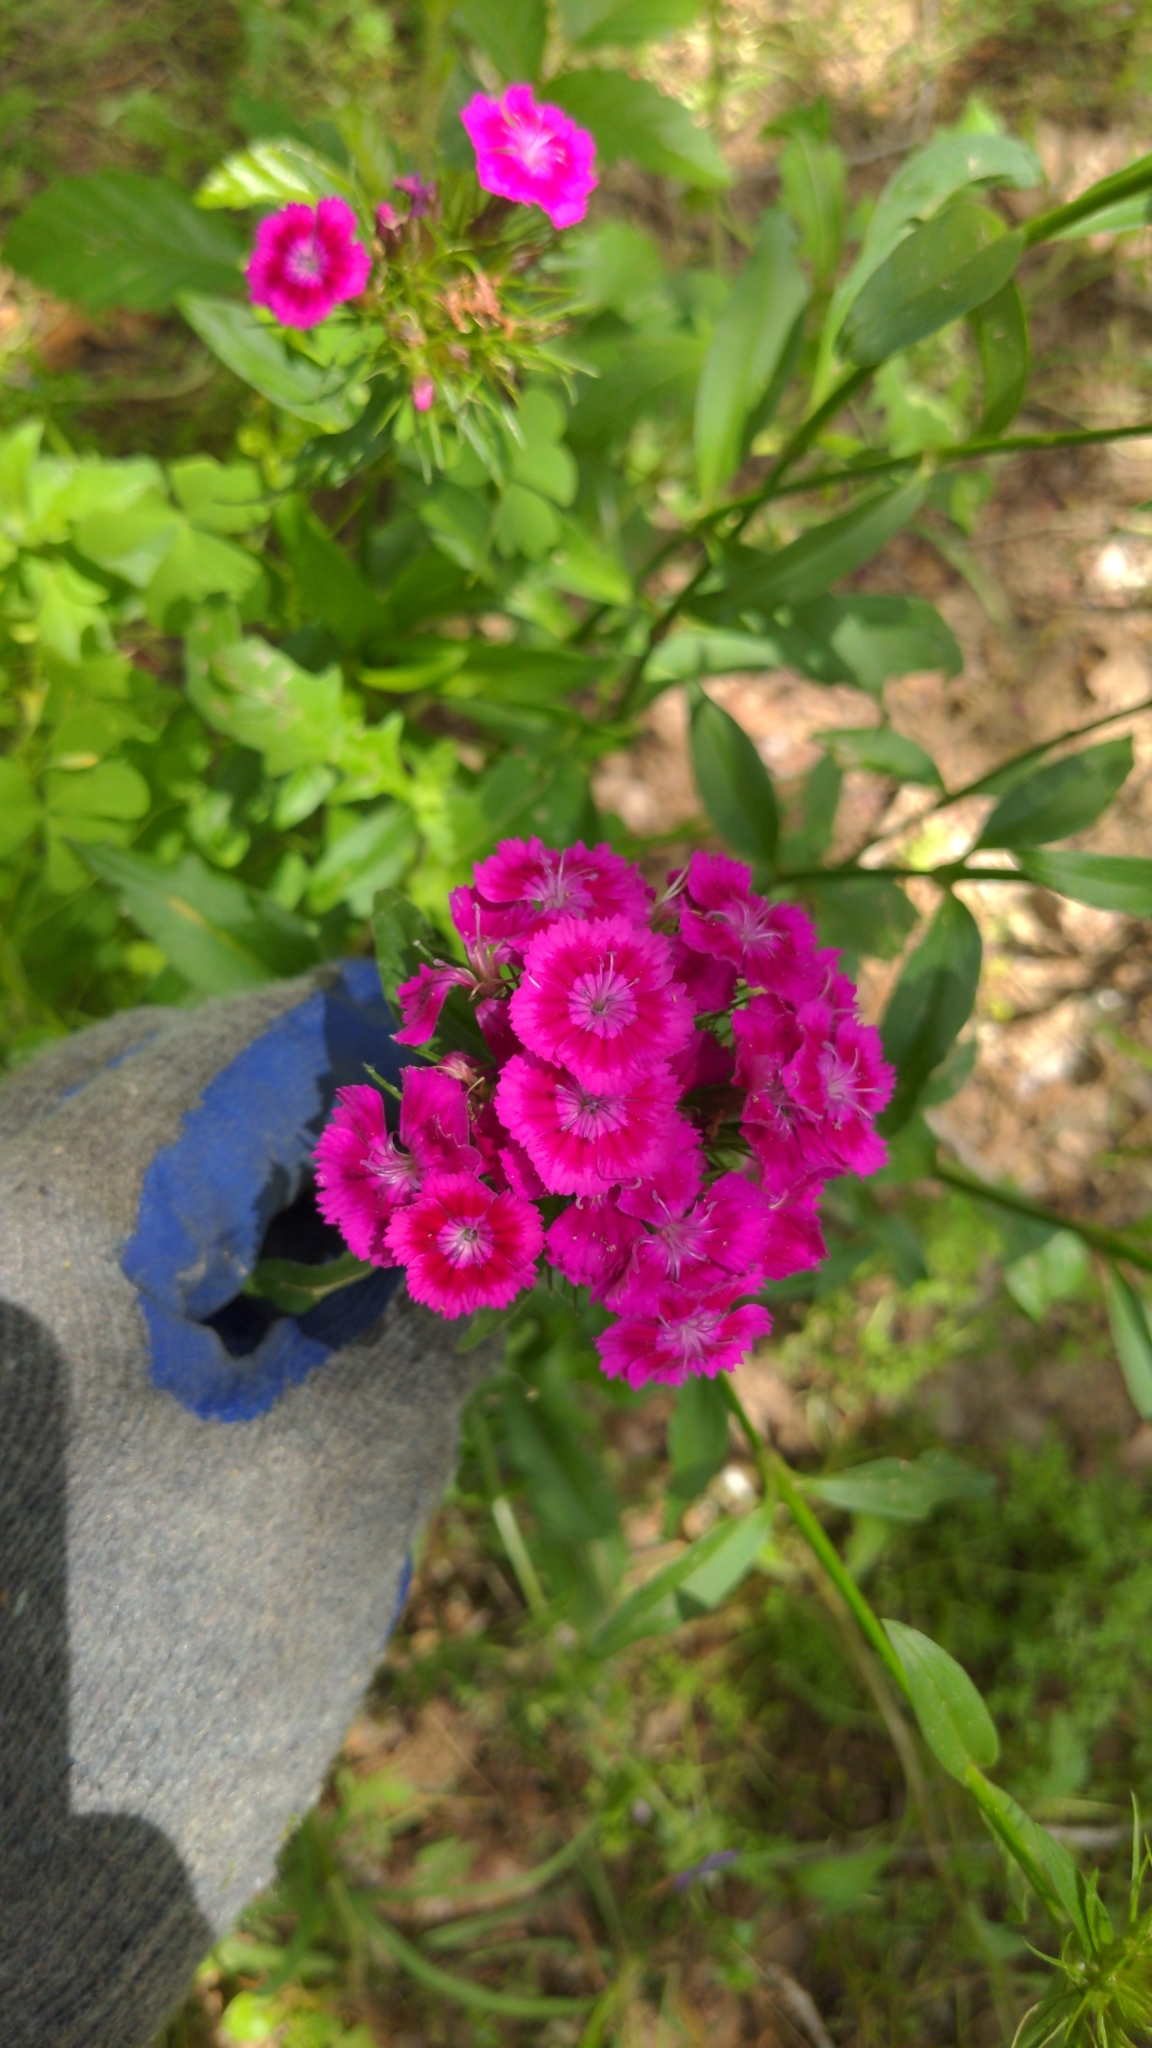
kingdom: Plantae
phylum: Tracheophyta
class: Magnoliopsida
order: Caryophyllales
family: Caryophyllaceae
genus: Dianthus
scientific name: Dianthus barbatus
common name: Sweet-william
